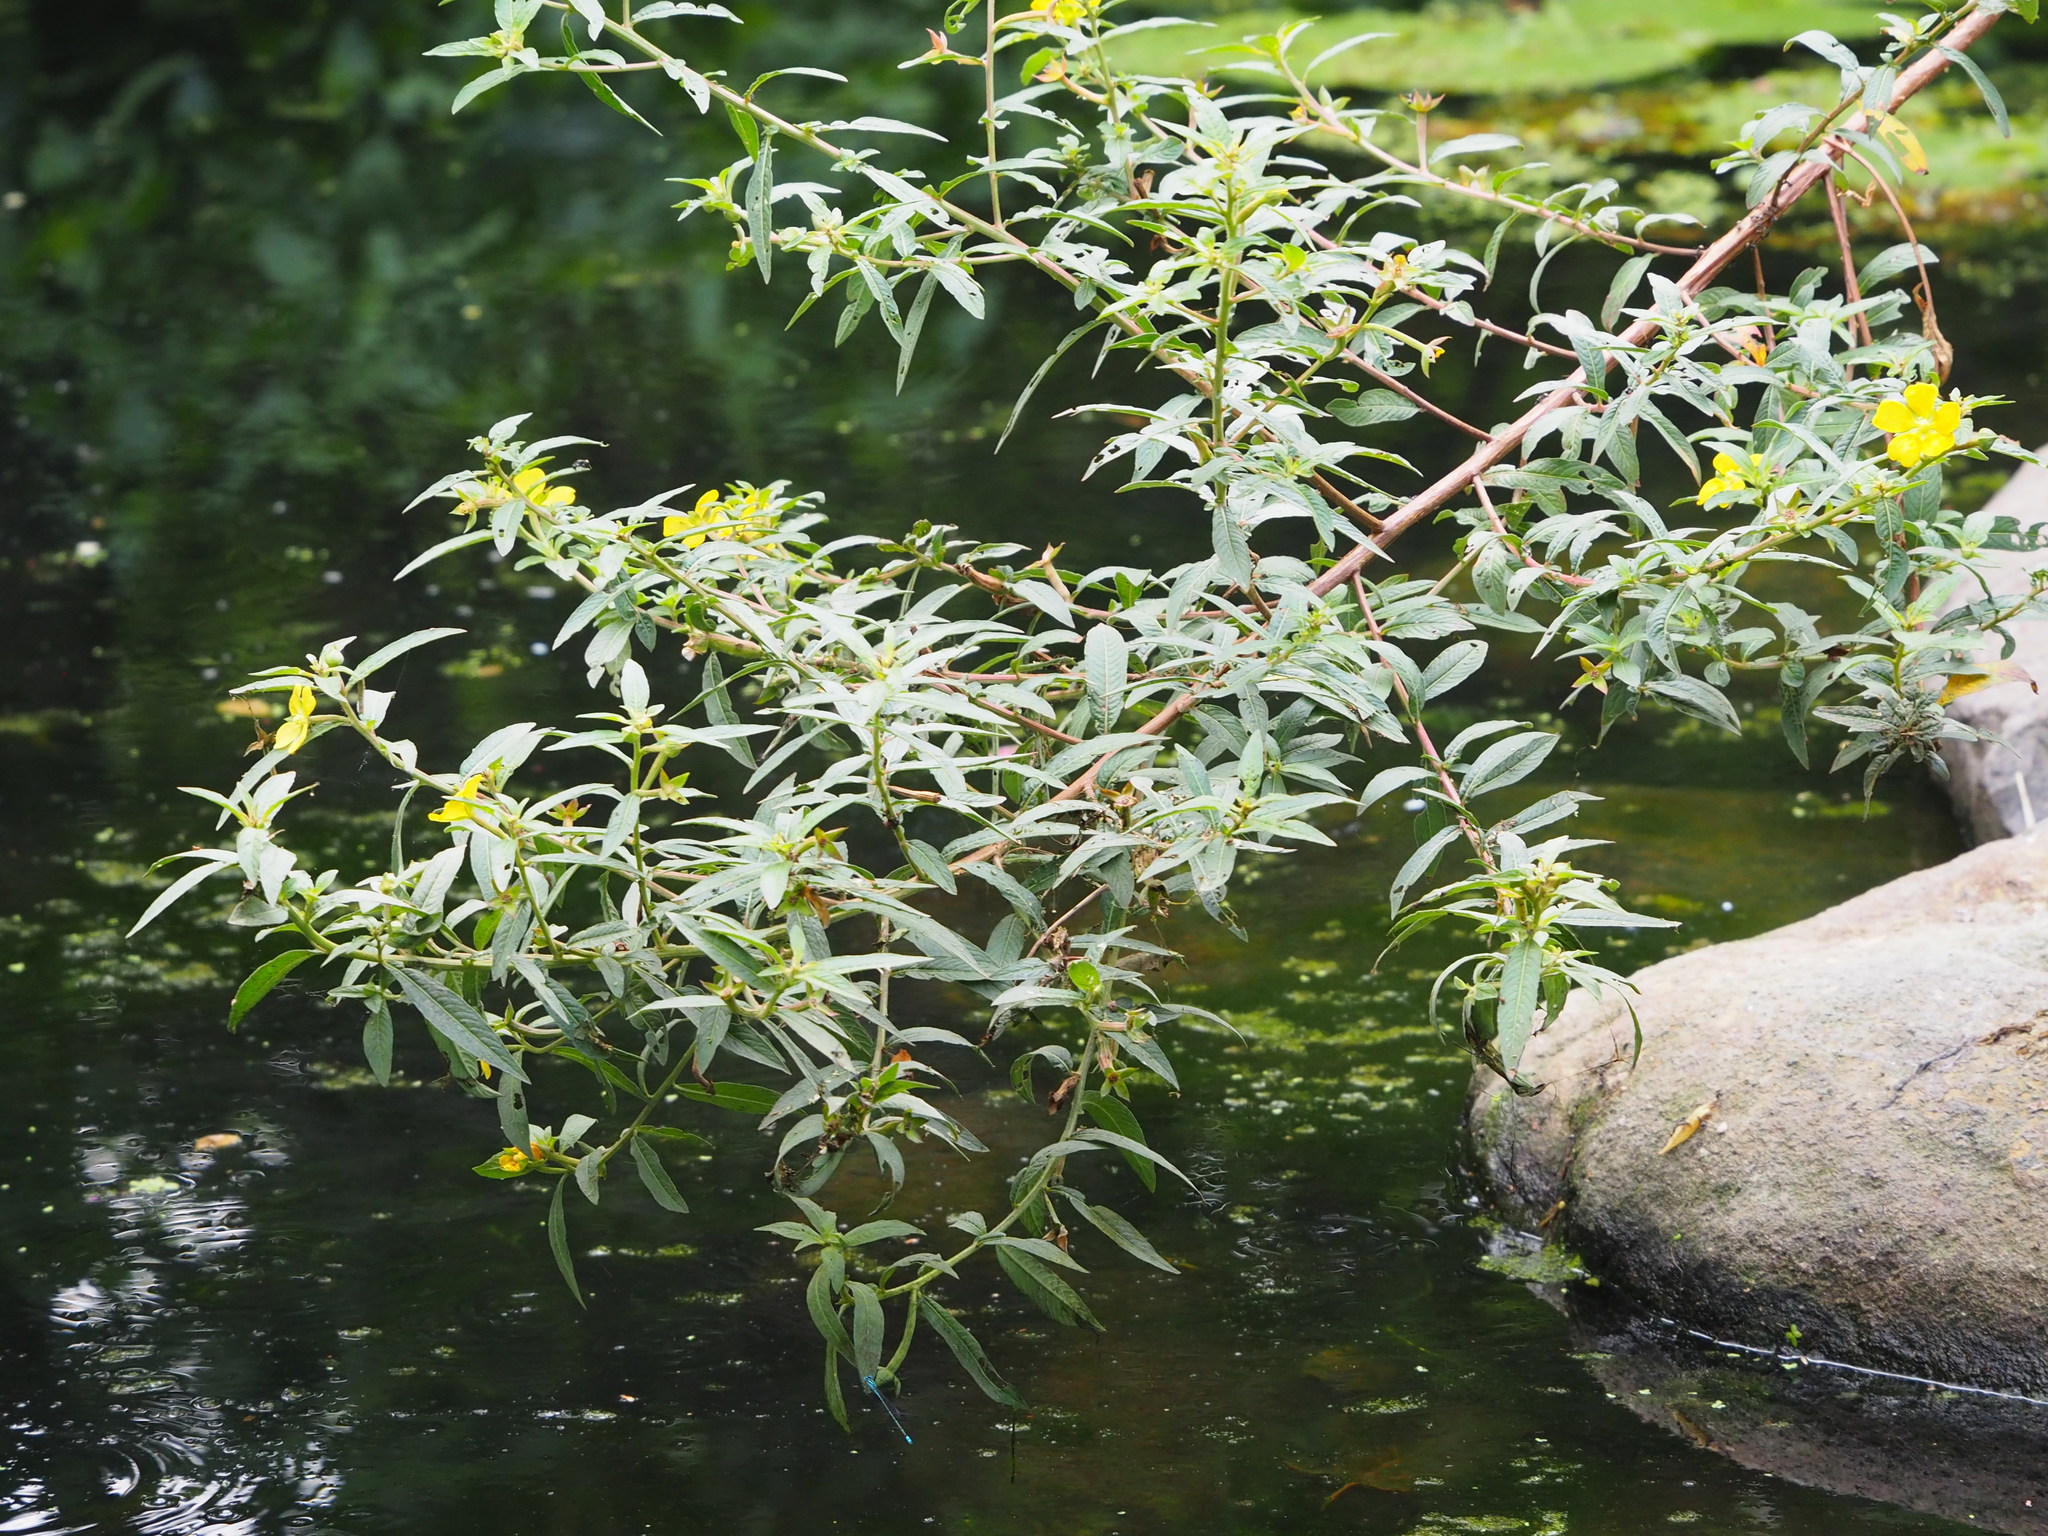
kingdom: Plantae
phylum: Tracheophyta
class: Magnoliopsida
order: Myrtales
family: Onagraceae
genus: Ludwigia
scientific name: Ludwigia octovalvis
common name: Water-primrose
